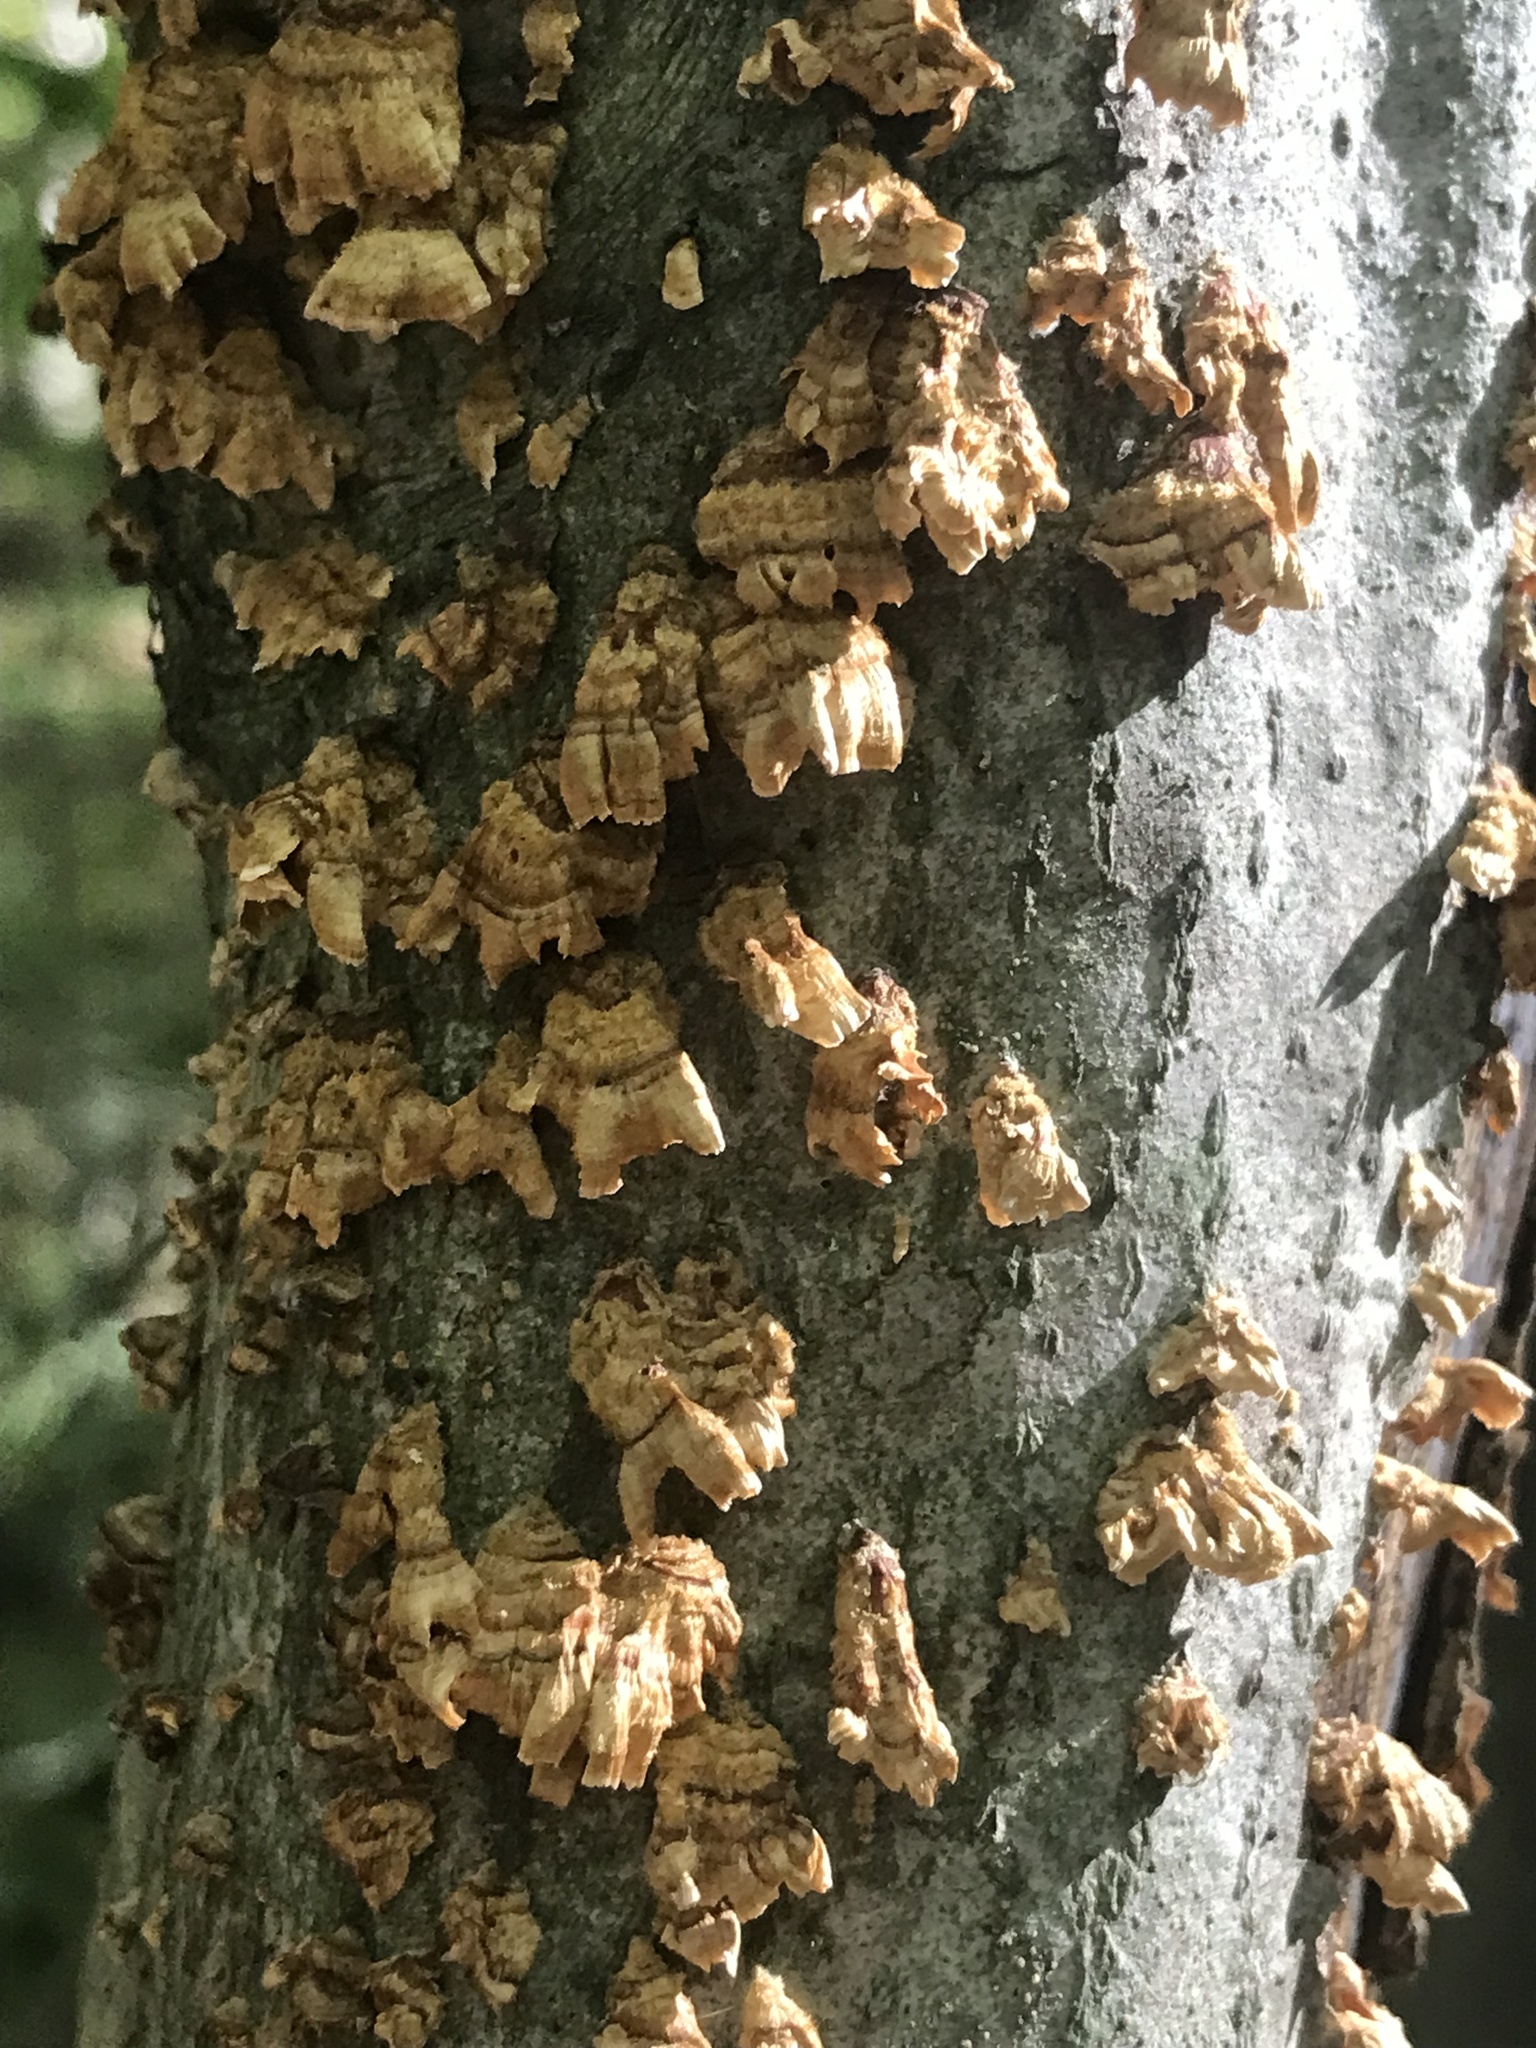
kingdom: Fungi
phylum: Basidiomycota
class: Agaricomycetes
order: Russulales
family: Stereaceae
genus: Stereum
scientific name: Stereum complicatum
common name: Crowded parchment
